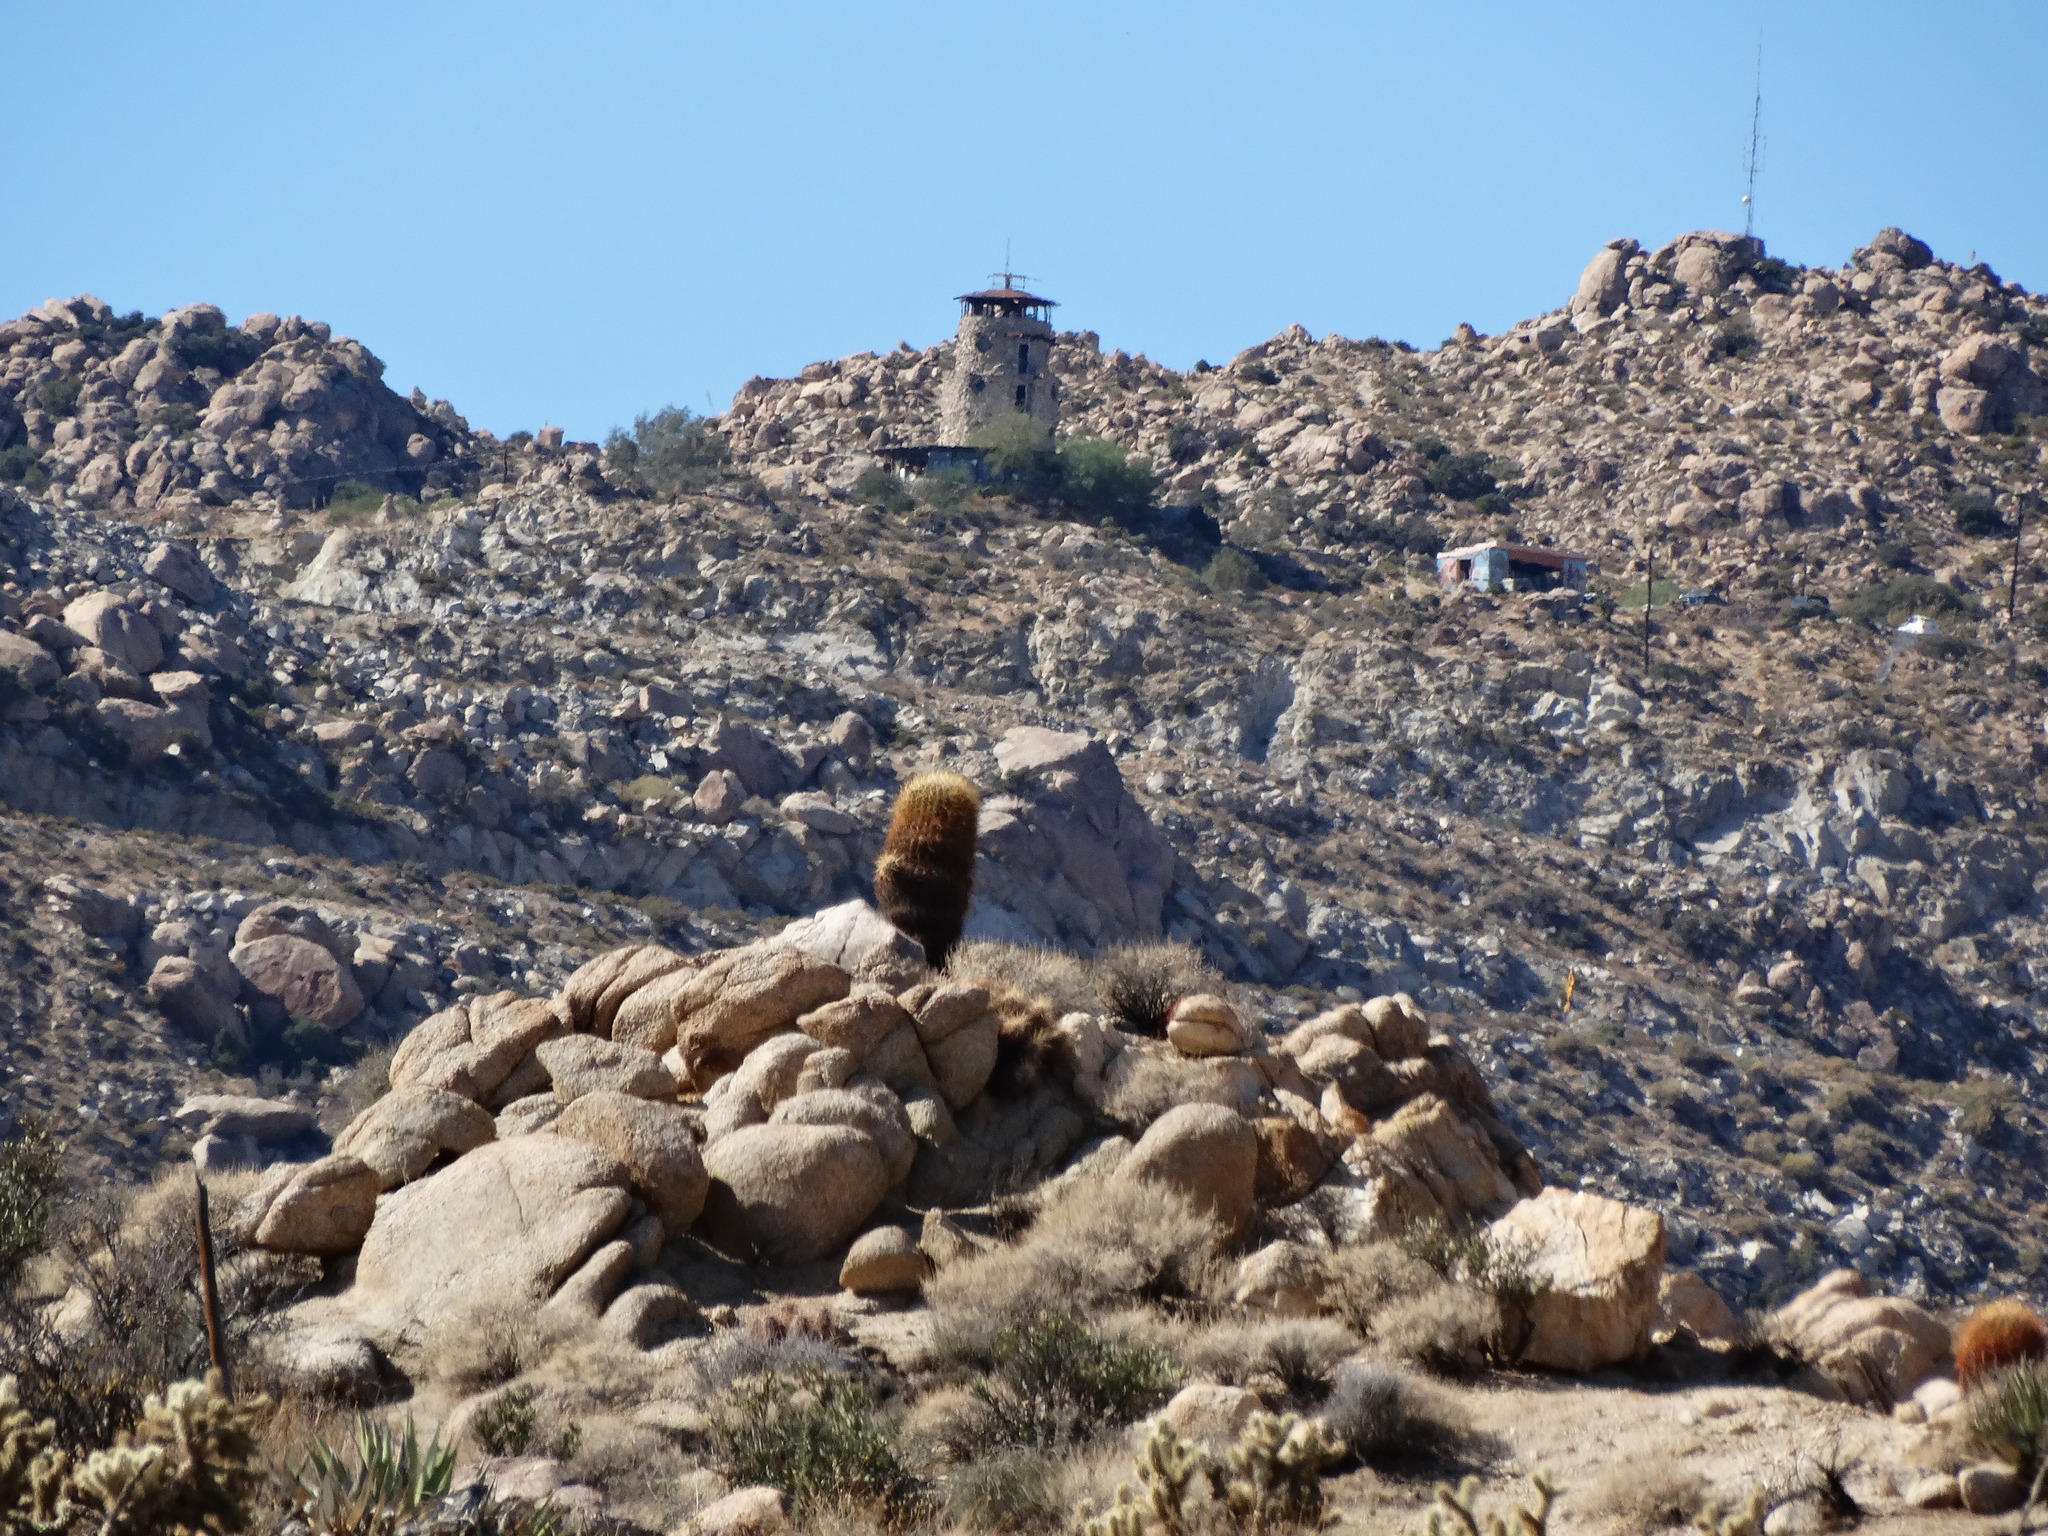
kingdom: Plantae
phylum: Tracheophyta
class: Magnoliopsida
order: Caryophyllales
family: Cactaceae
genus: Ferocactus
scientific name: Ferocactus cylindraceus
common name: California barrel cactus
